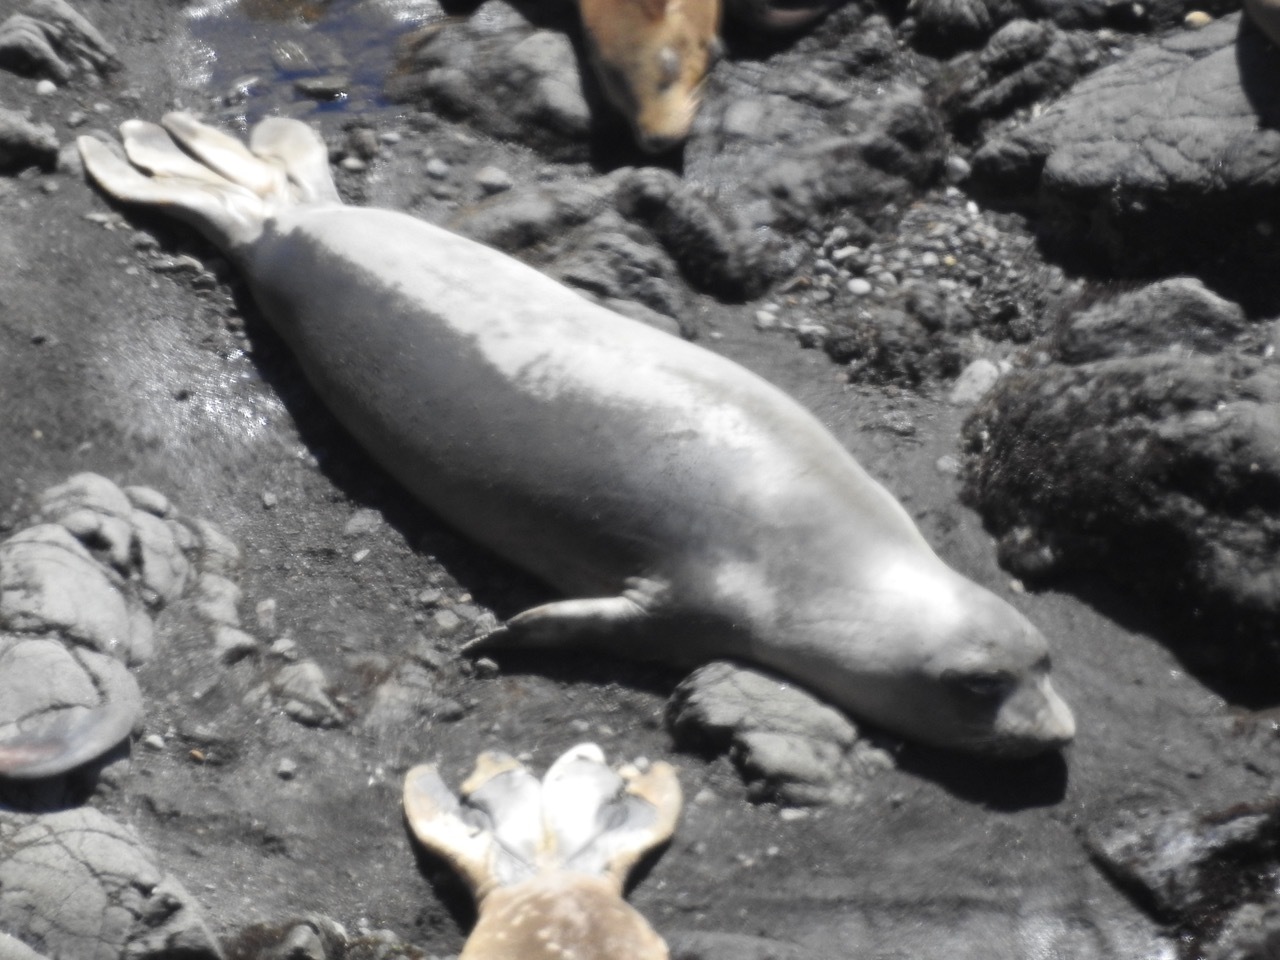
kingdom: Animalia
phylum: Chordata
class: Mammalia
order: Carnivora
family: Phocidae
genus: Mirounga
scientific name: Mirounga angustirostris
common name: Northern elephant seal
